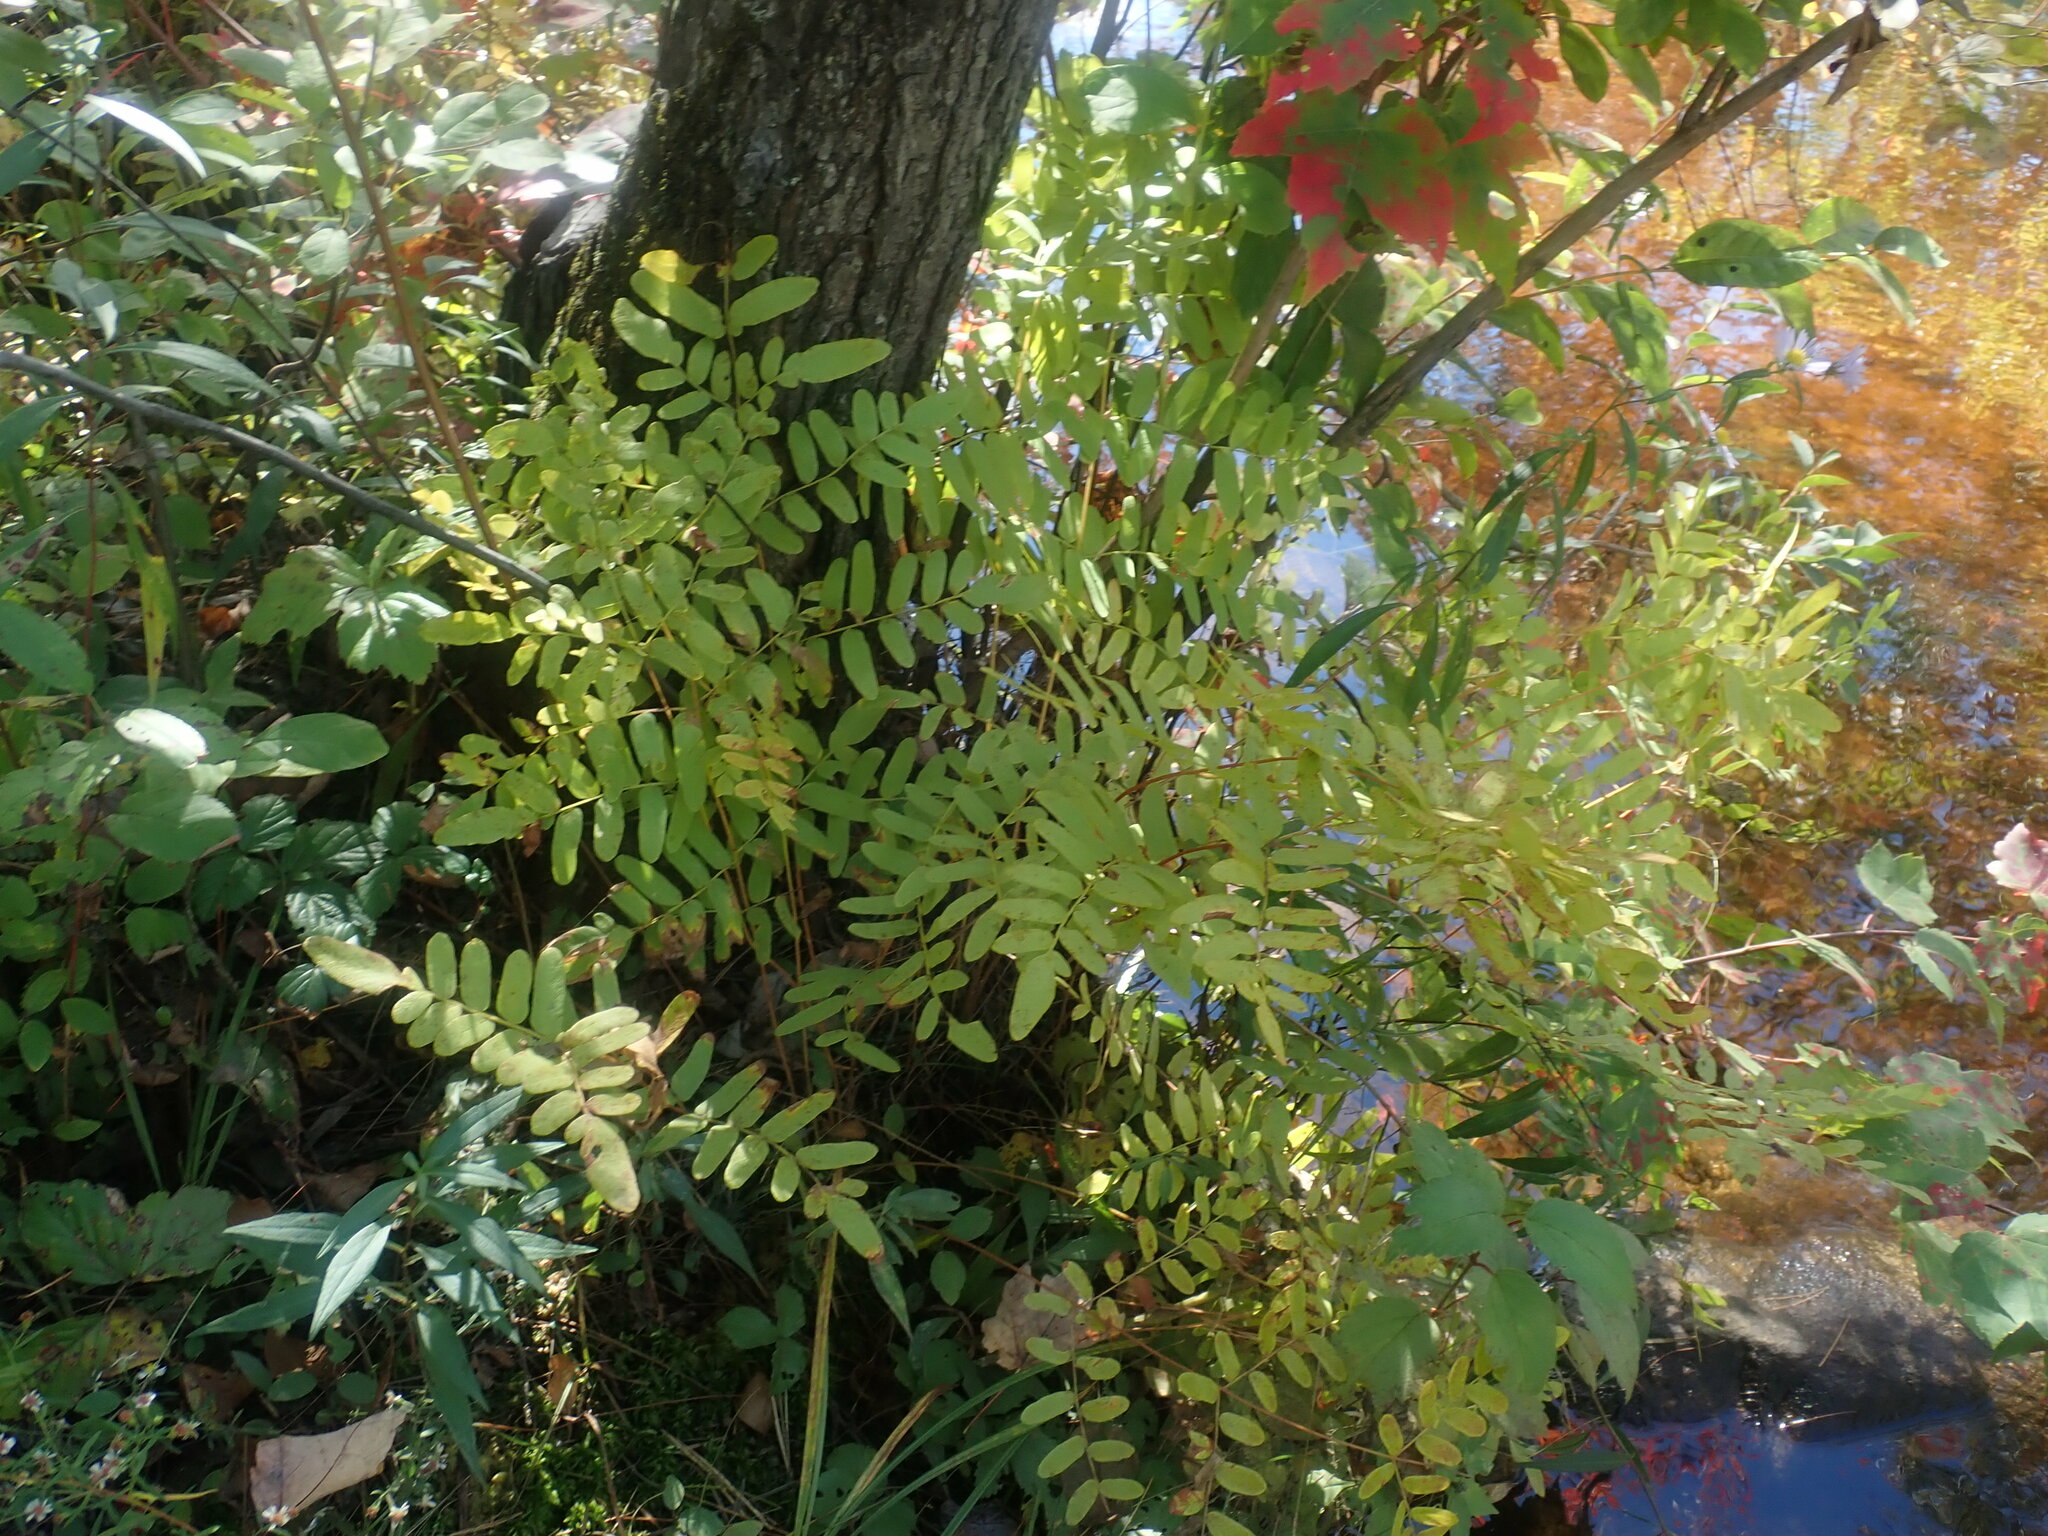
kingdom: Plantae
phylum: Tracheophyta
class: Polypodiopsida
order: Osmundales
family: Osmundaceae
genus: Osmunda
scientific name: Osmunda spectabilis
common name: American royal fern
